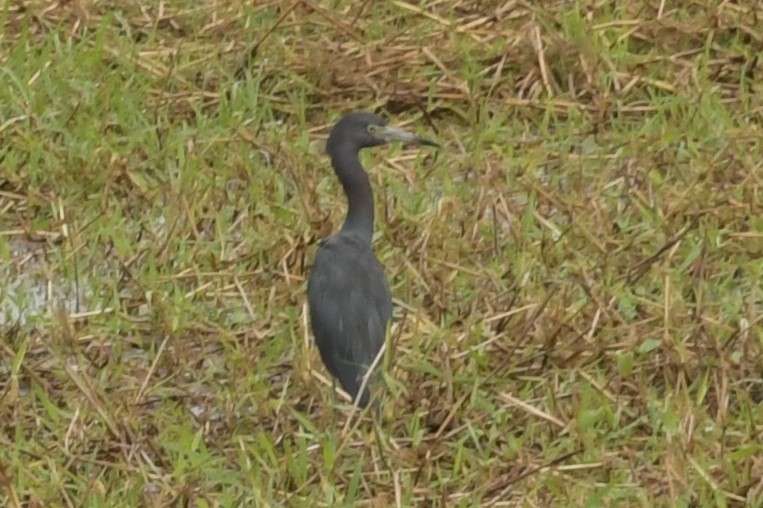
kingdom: Animalia
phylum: Chordata
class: Aves
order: Pelecaniformes
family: Ardeidae
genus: Egretta
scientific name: Egretta caerulea
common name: Little blue heron
